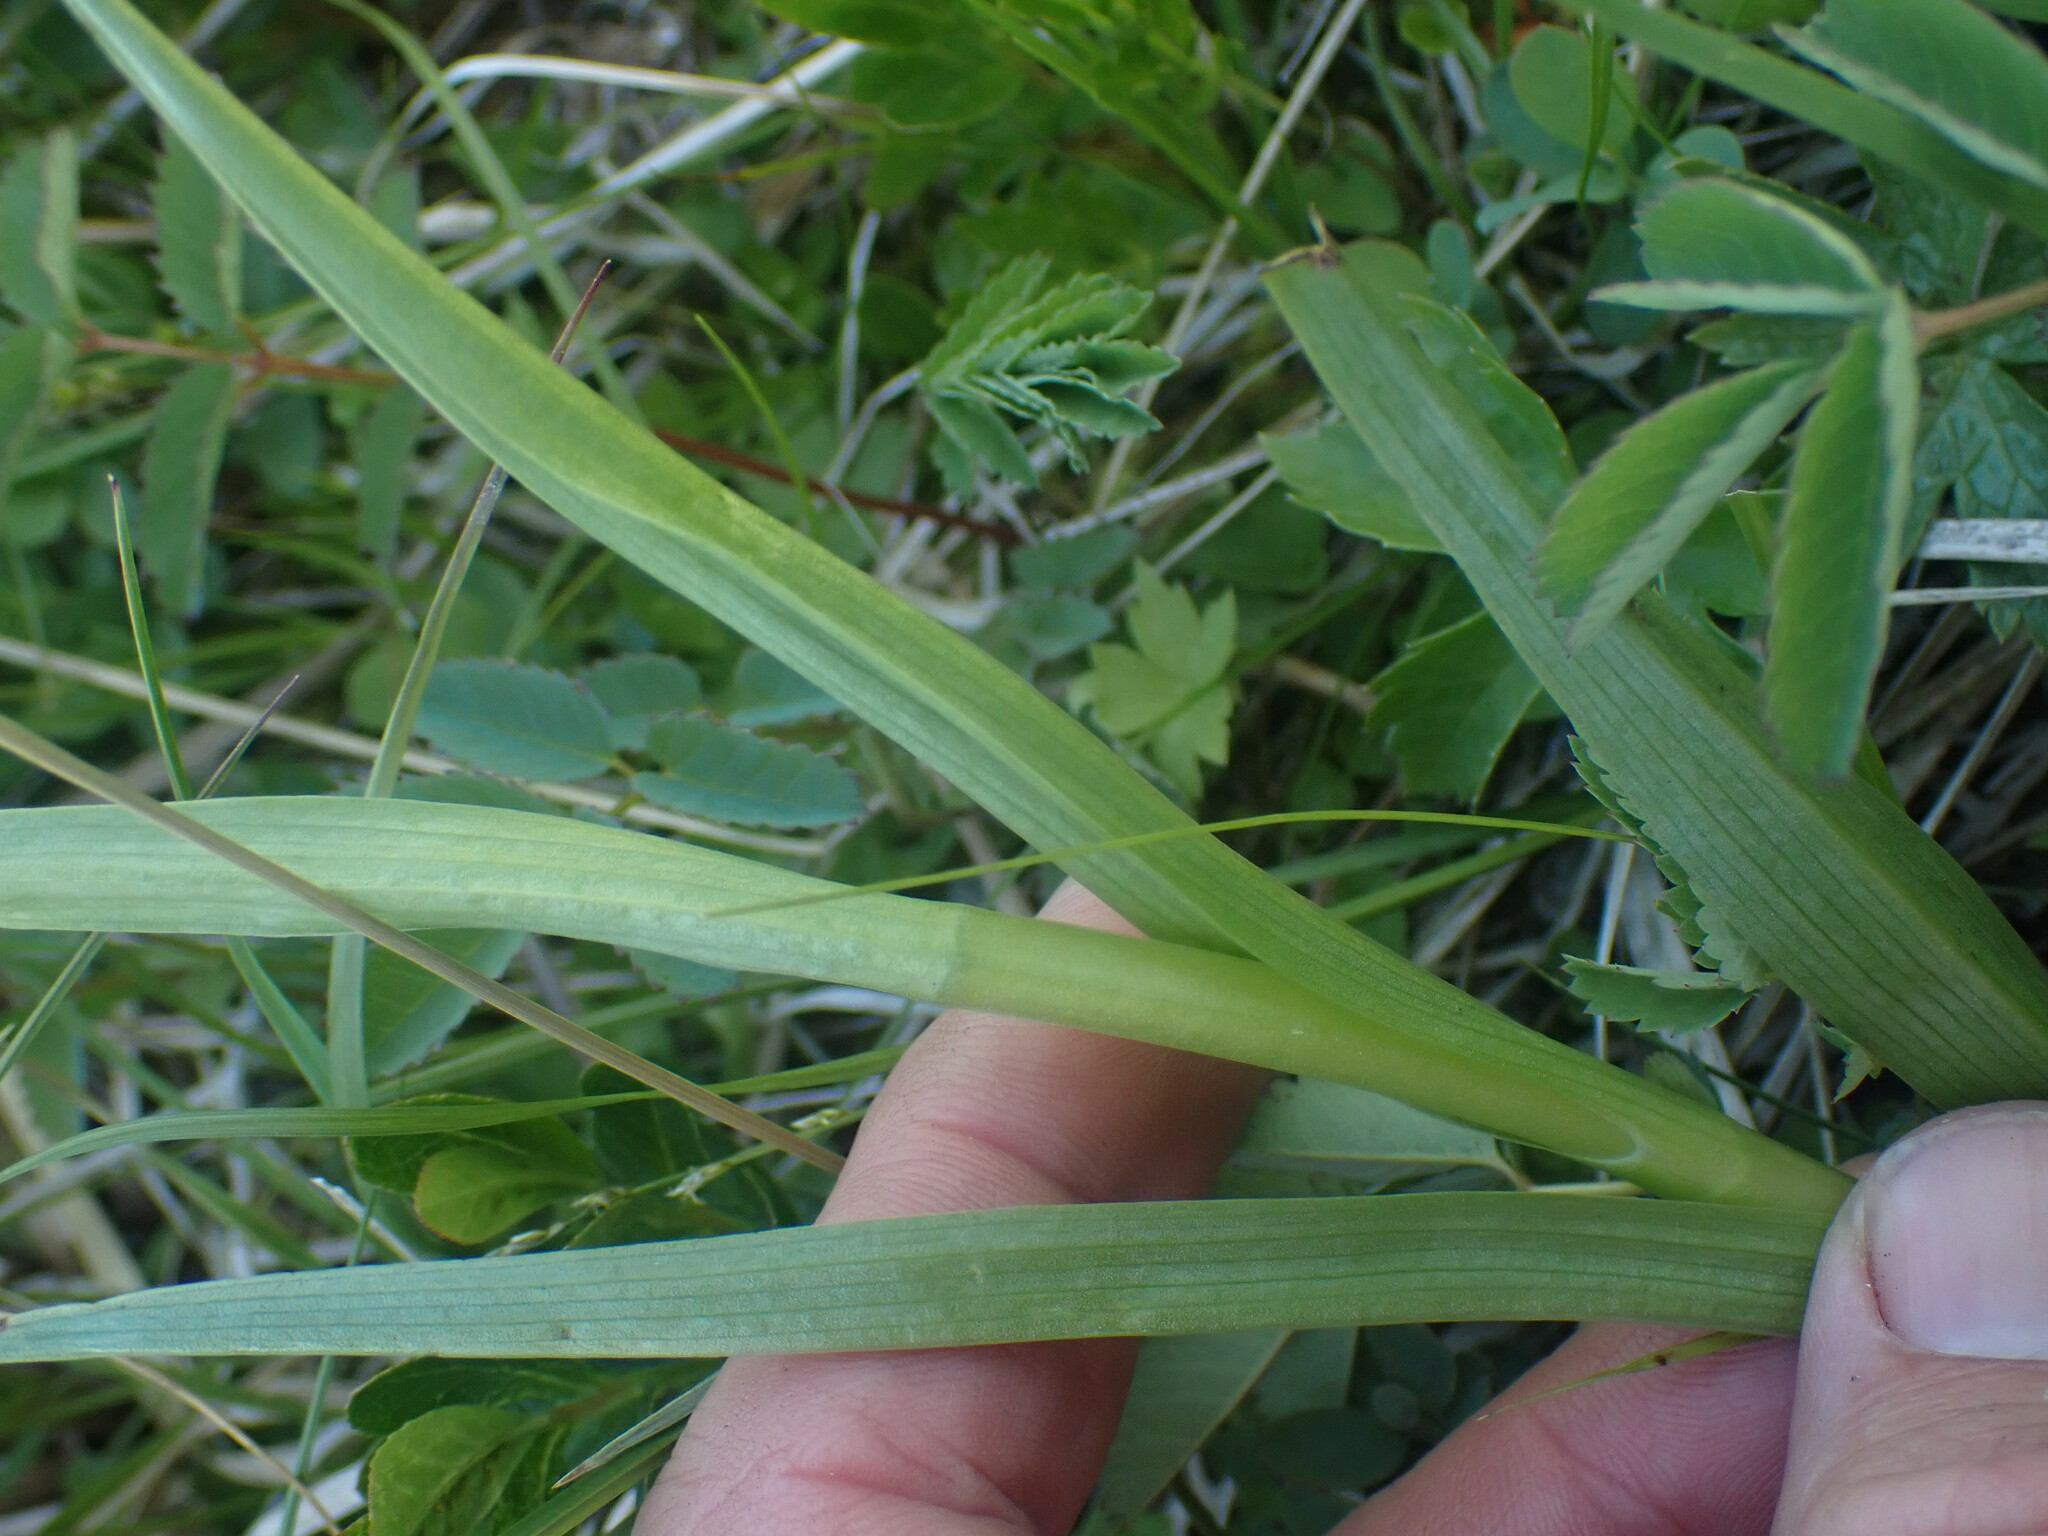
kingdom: Plantae
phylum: Tracheophyta
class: Liliopsida
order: Asparagales
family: Orchidaceae
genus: Platanthera
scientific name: Platanthera dilatata
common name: Bog candles
